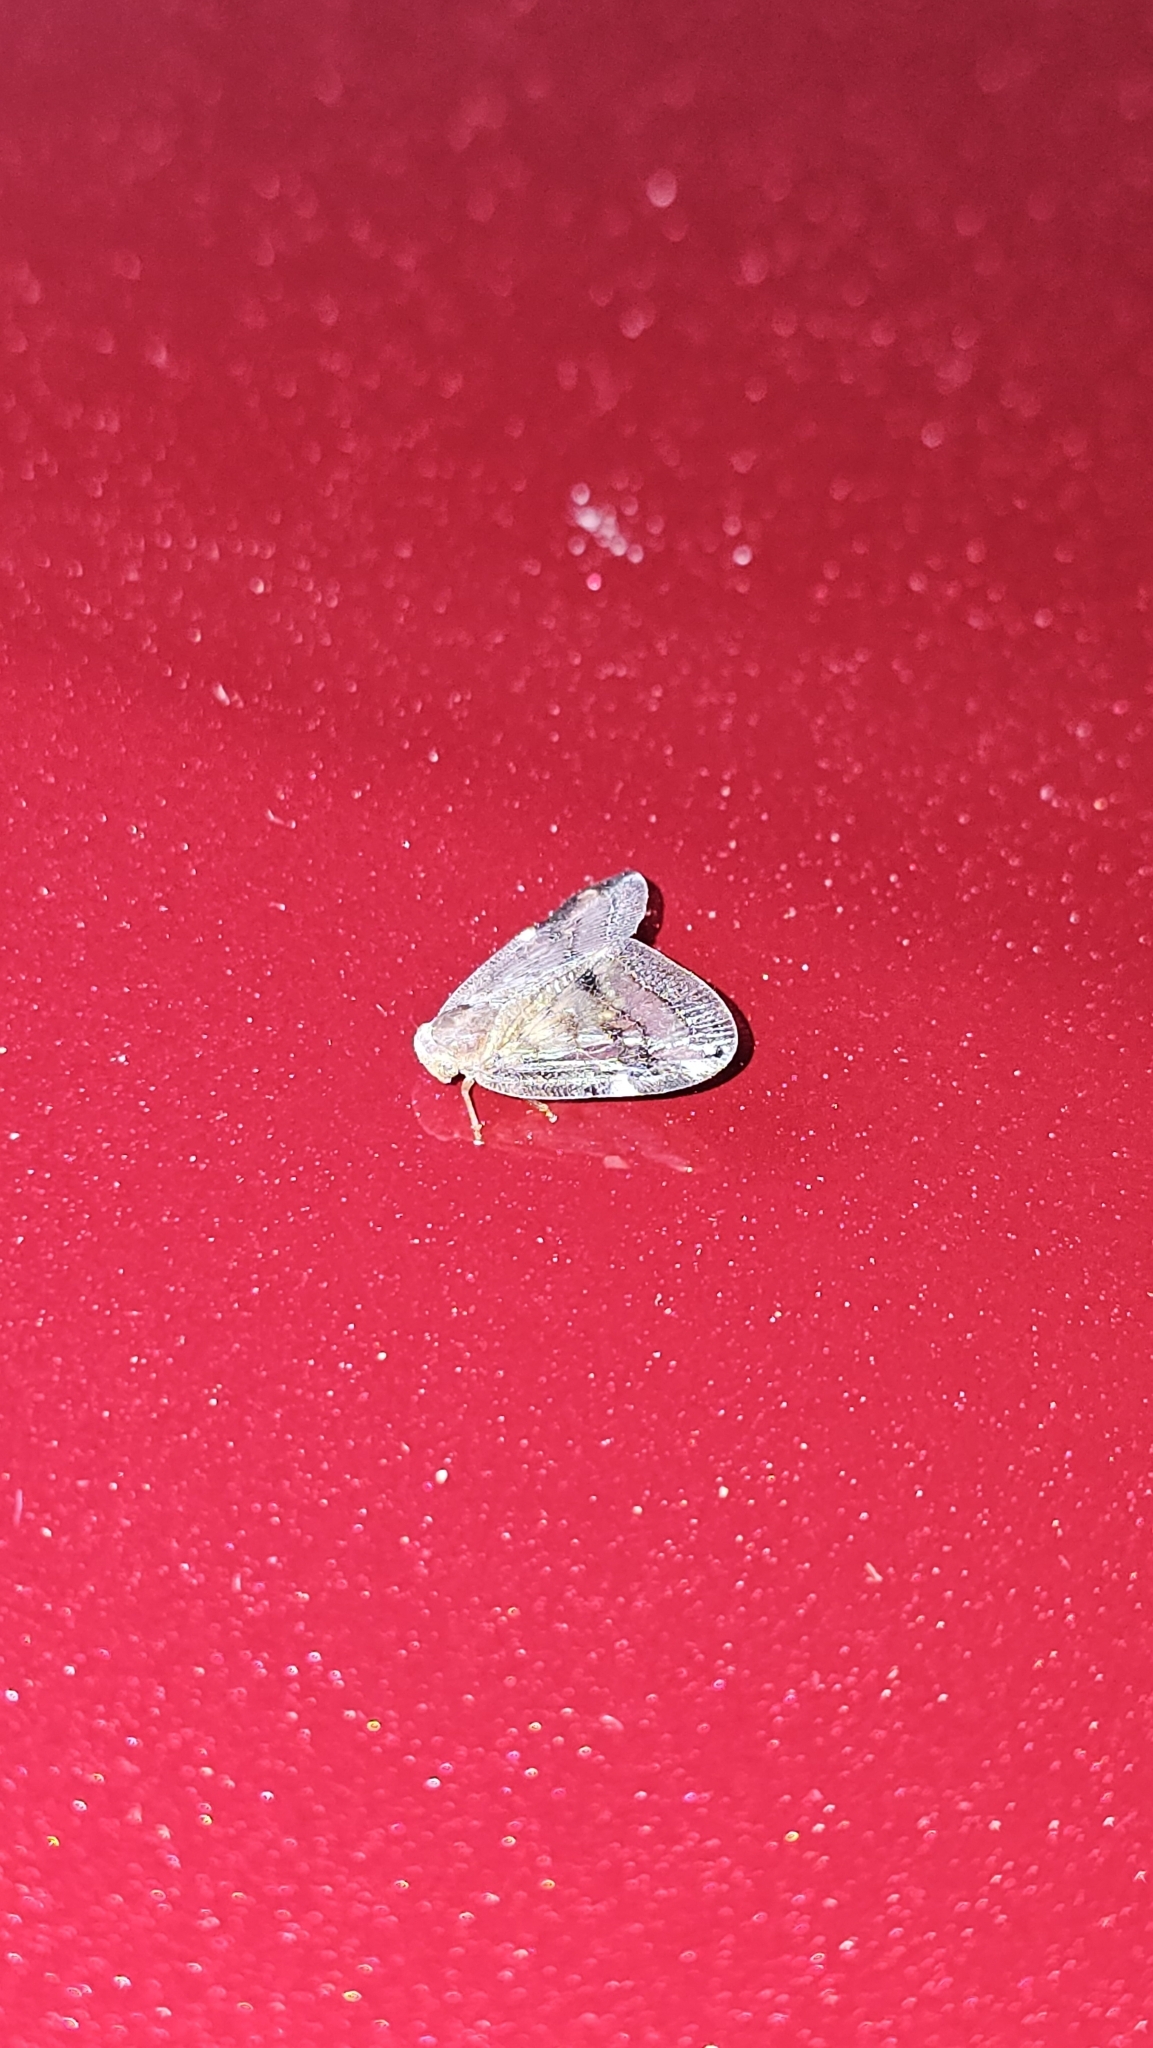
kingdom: Animalia
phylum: Arthropoda
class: Insecta
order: Hemiptera
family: Ricaniidae
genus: Scolypopa
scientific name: Scolypopa australis
